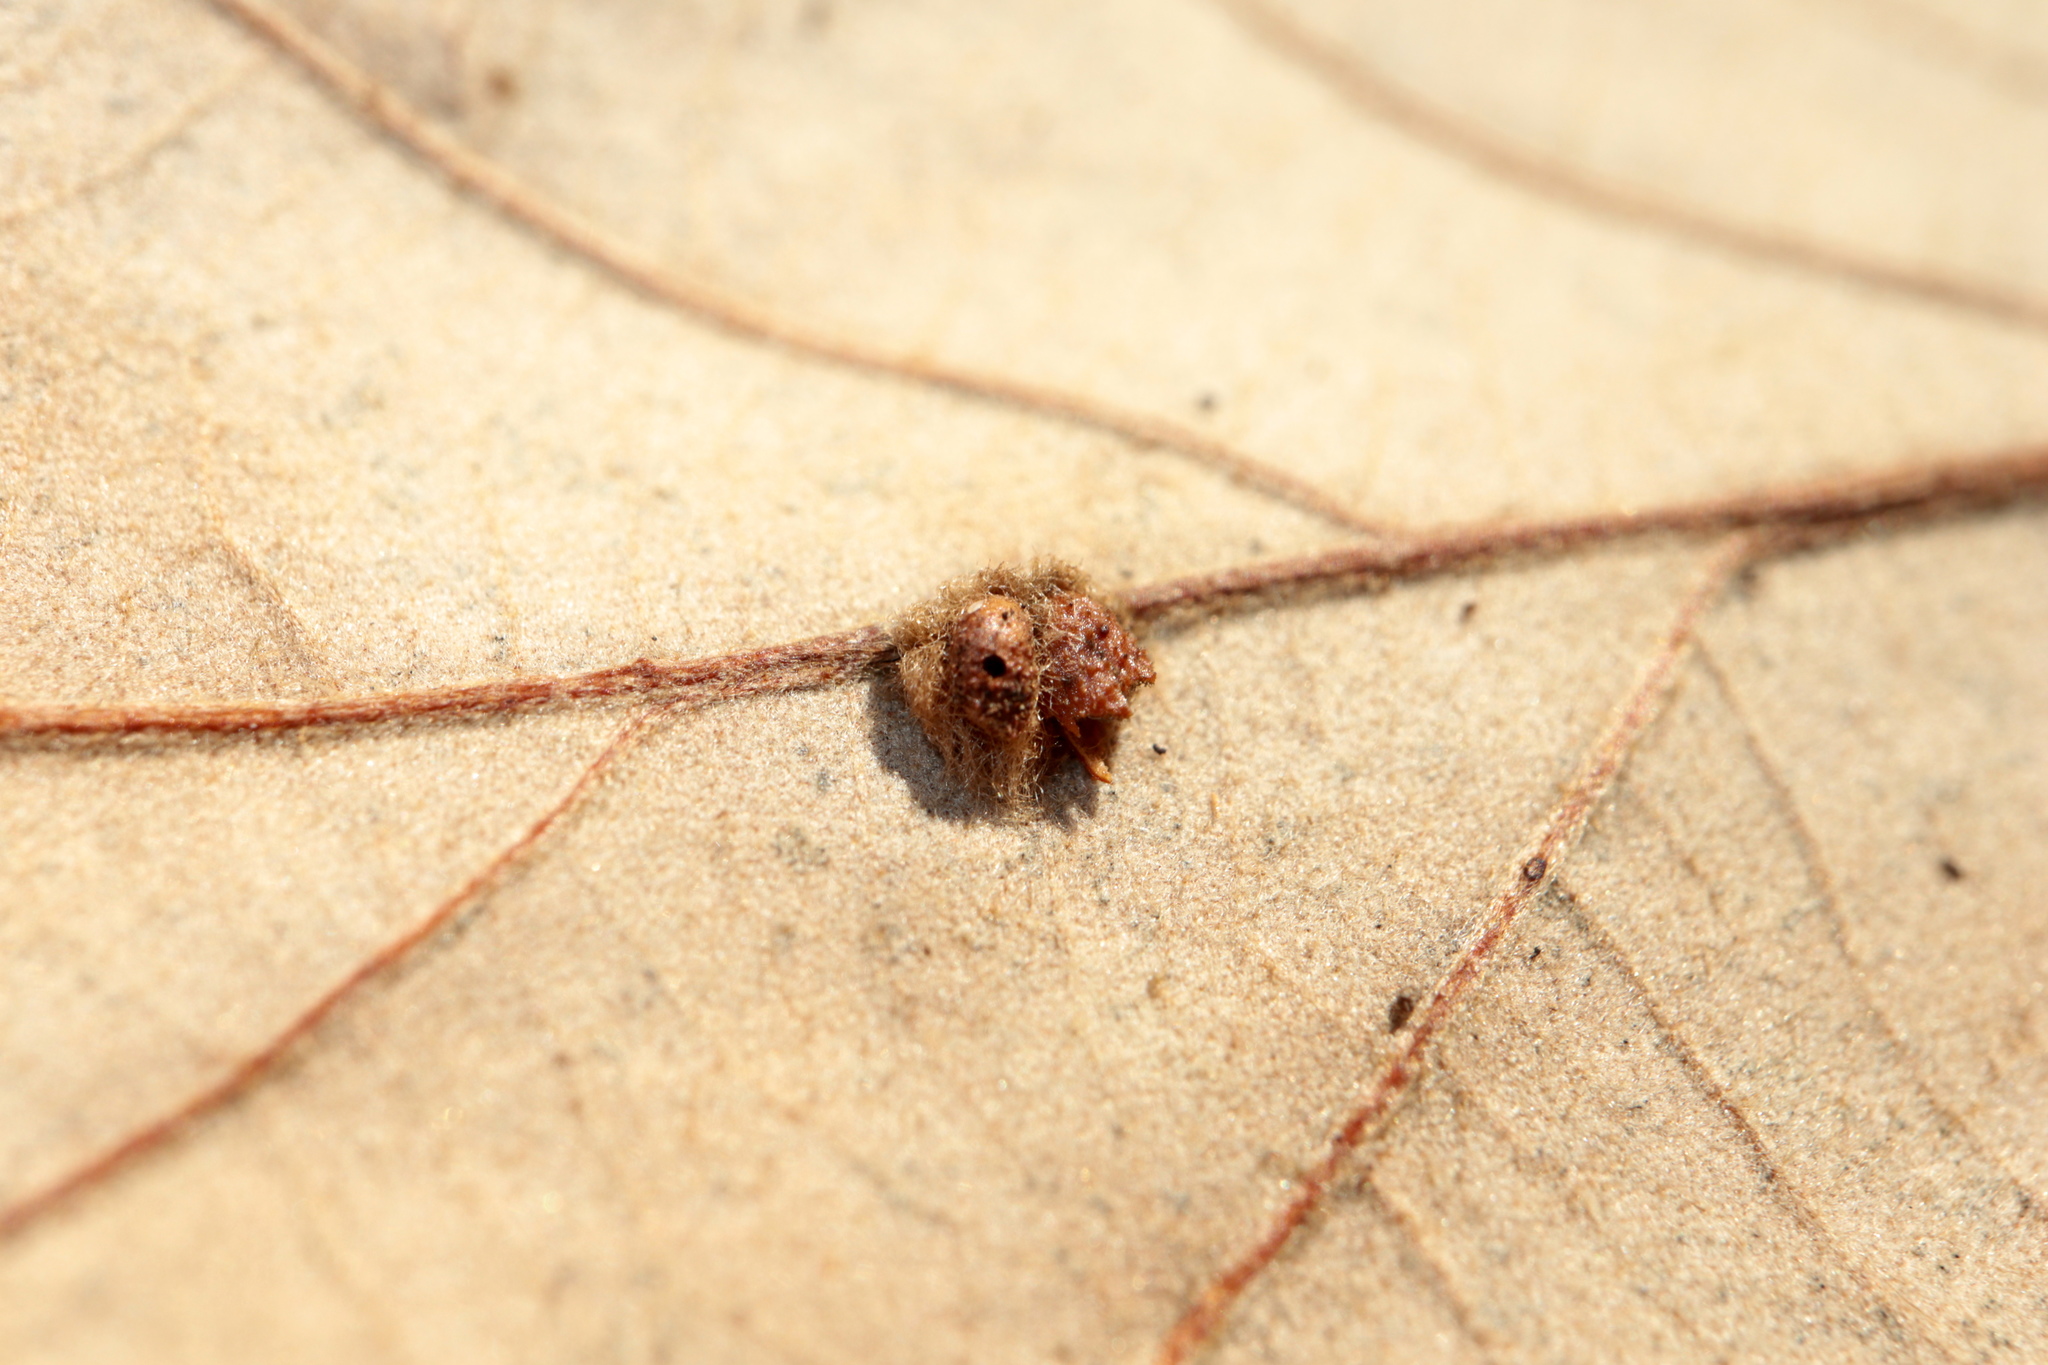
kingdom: Animalia
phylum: Arthropoda
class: Insecta
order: Hymenoptera
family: Cynipidae
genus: Andricus
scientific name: Andricus Druon ignotum
